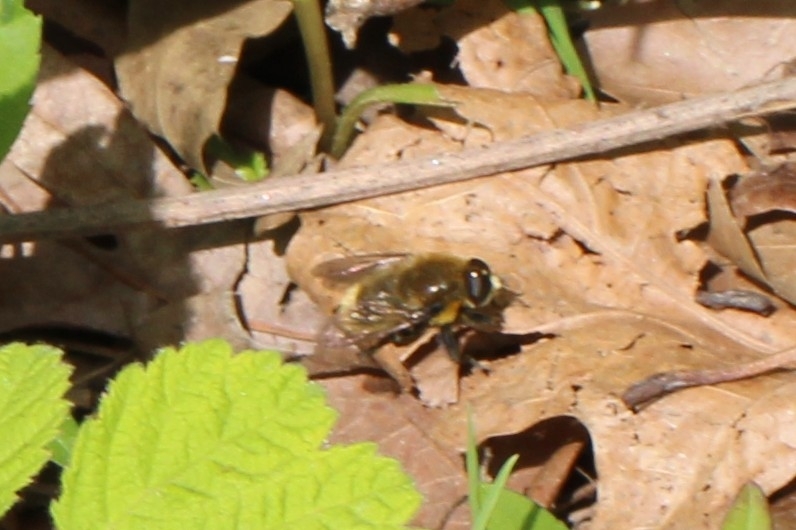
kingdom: Animalia
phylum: Arthropoda
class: Insecta
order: Diptera
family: Syrphidae
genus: Merodon
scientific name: Merodon equestris
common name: Greater bulb-fly
